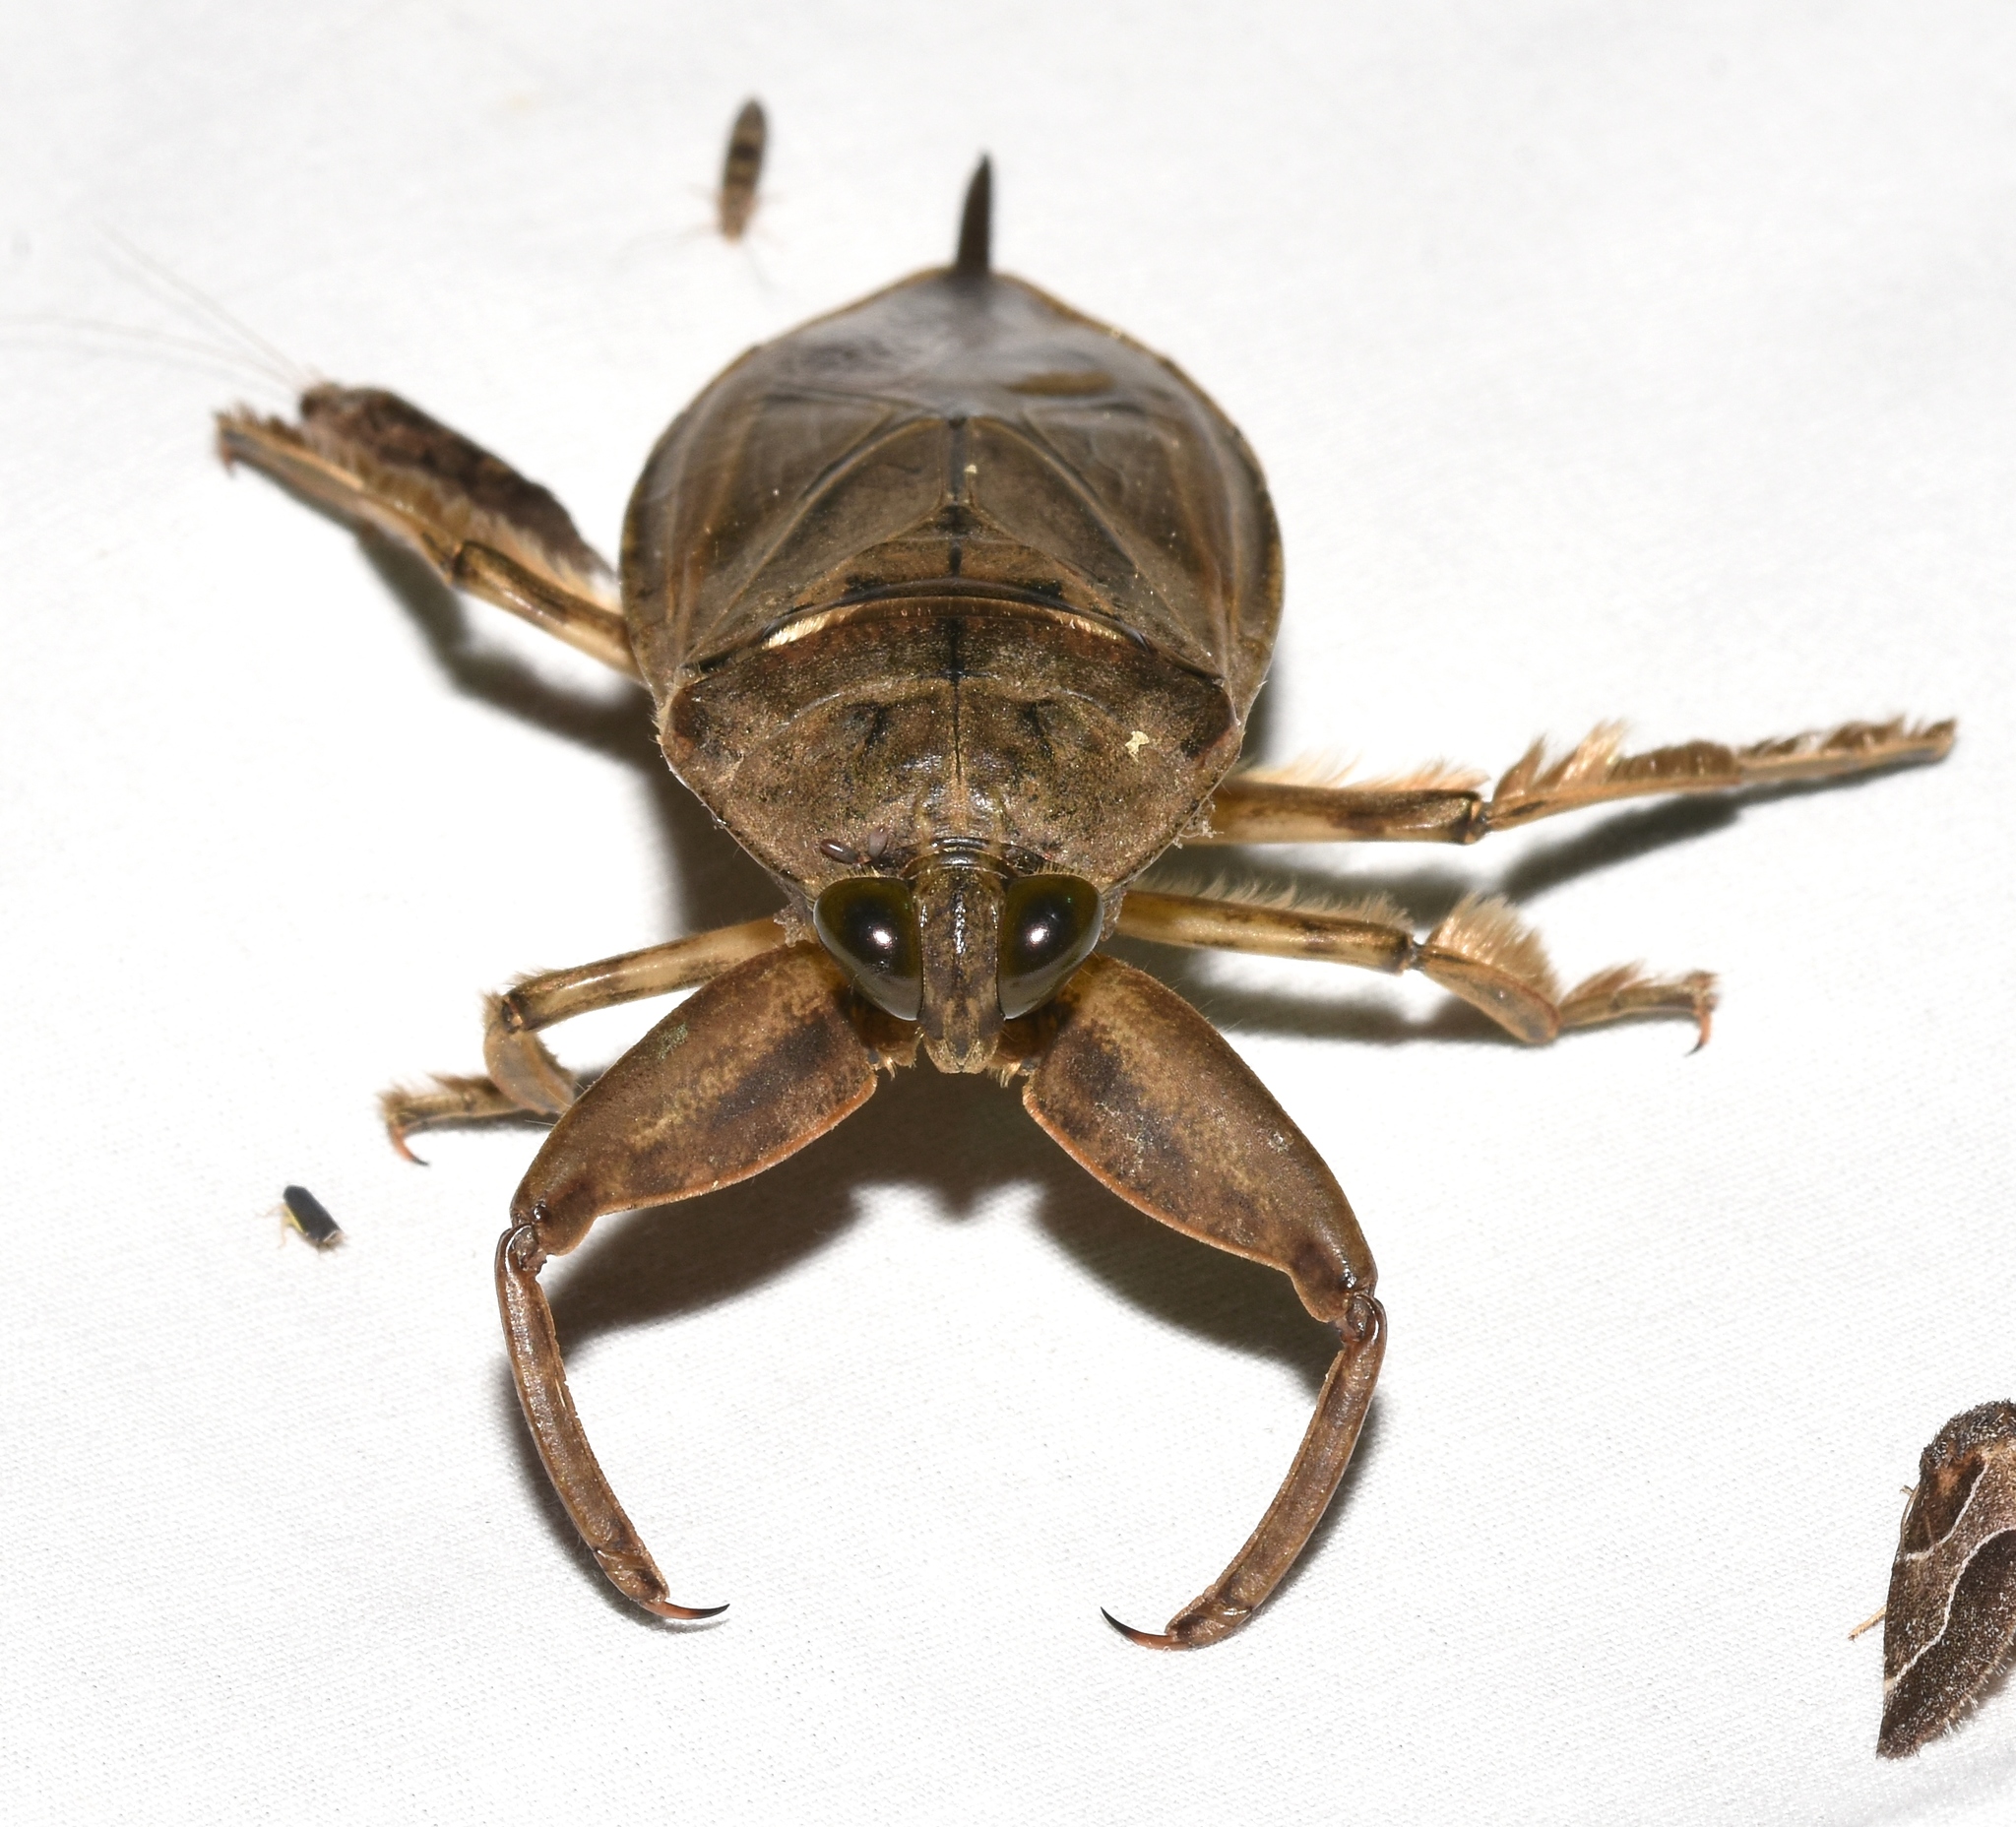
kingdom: Animalia
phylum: Arthropoda
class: Insecta
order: Hemiptera
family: Belostomatidae
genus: Lethocerus
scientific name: Lethocerus uhleri
